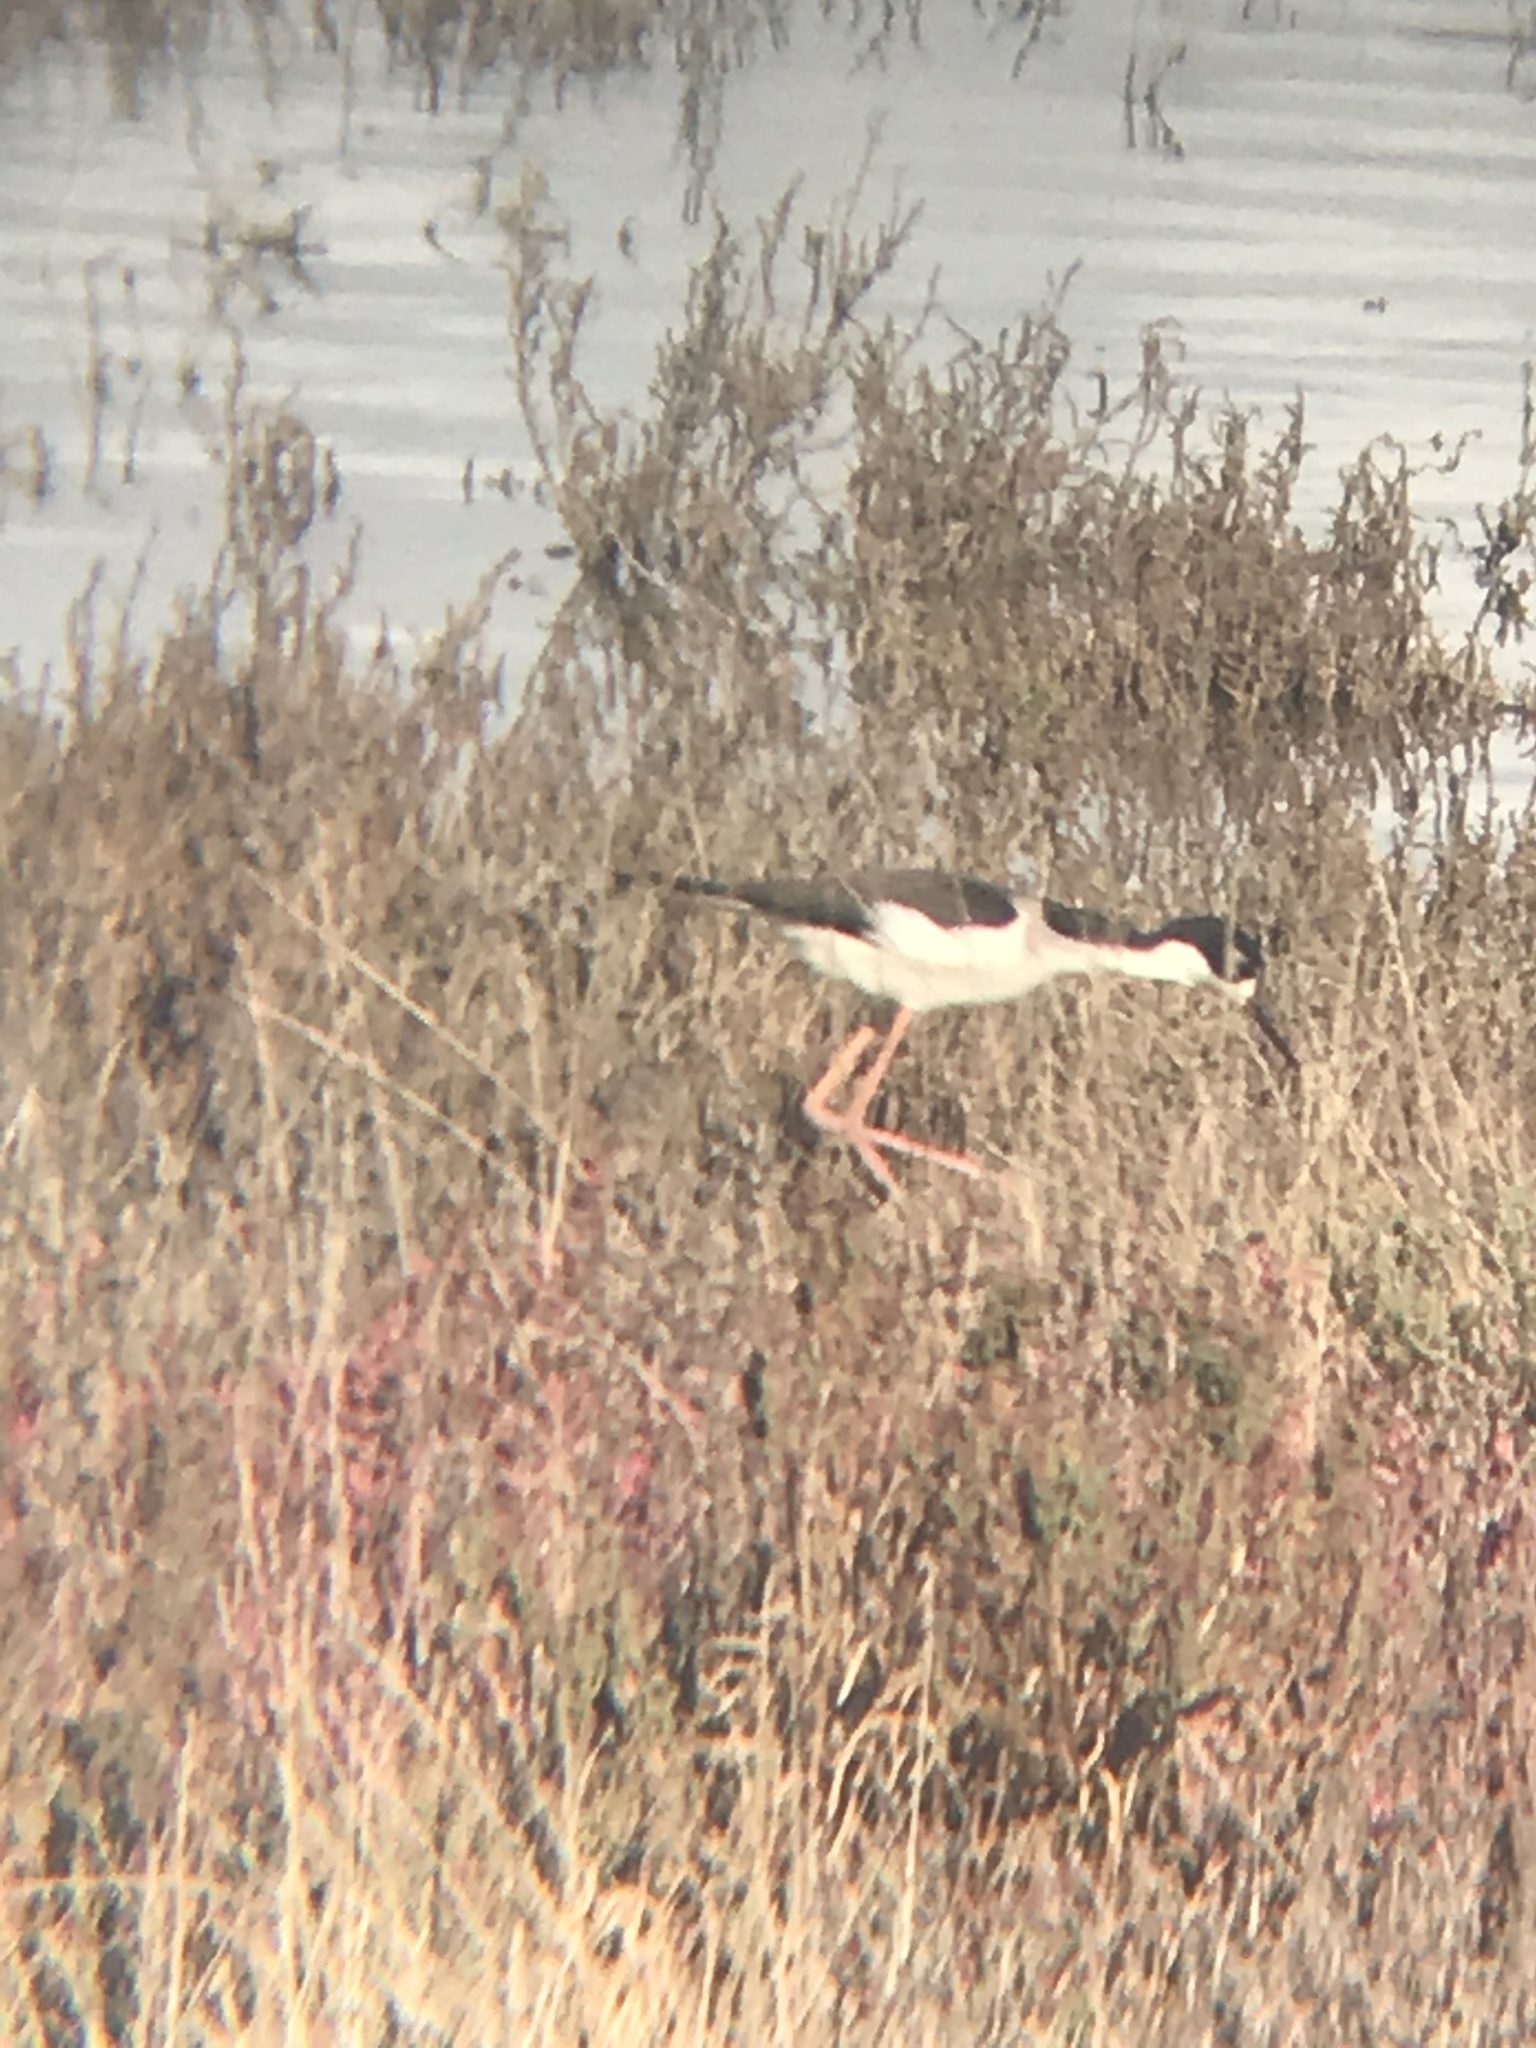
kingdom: Animalia
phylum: Chordata
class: Aves
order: Charadriiformes
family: Recurvirostridae
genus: Himantopus
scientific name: Himantopus mexicanus
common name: Black-necked stilt
